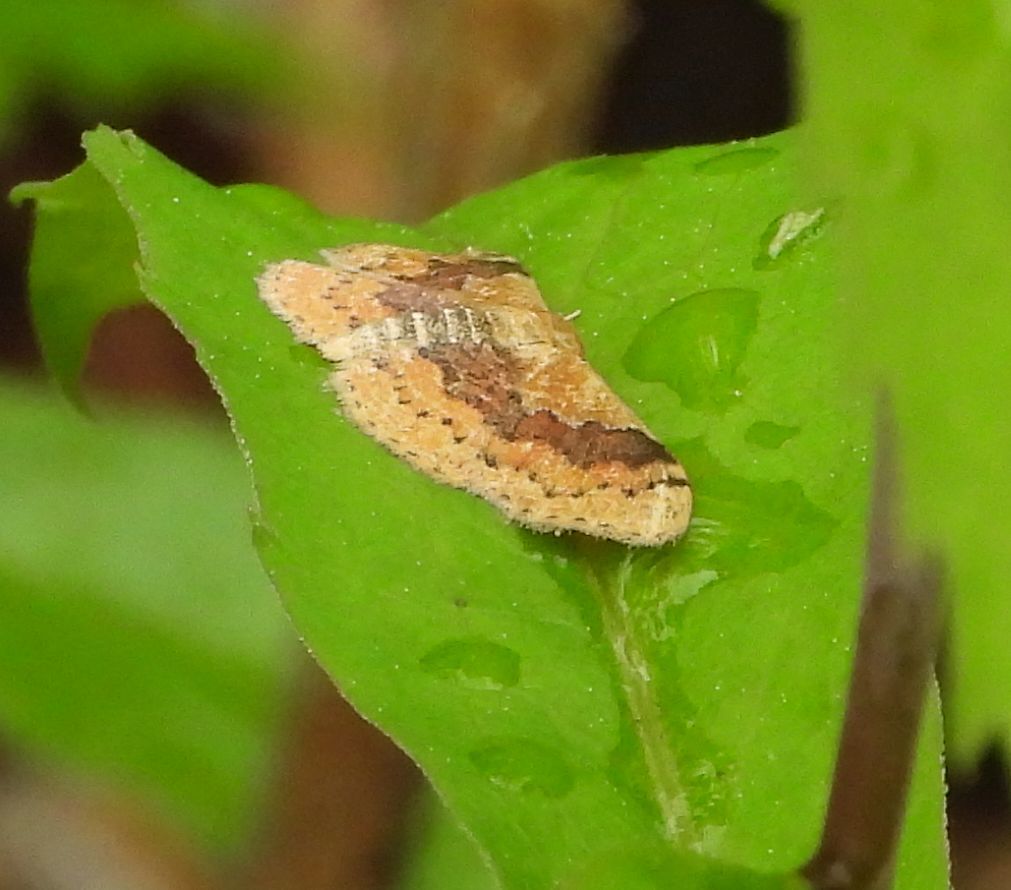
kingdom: Animalia
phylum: Arthropoda
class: Insecta
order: Lepidoptera
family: Geometridae
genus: Leptostales
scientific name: Leptostales ferruminaria
